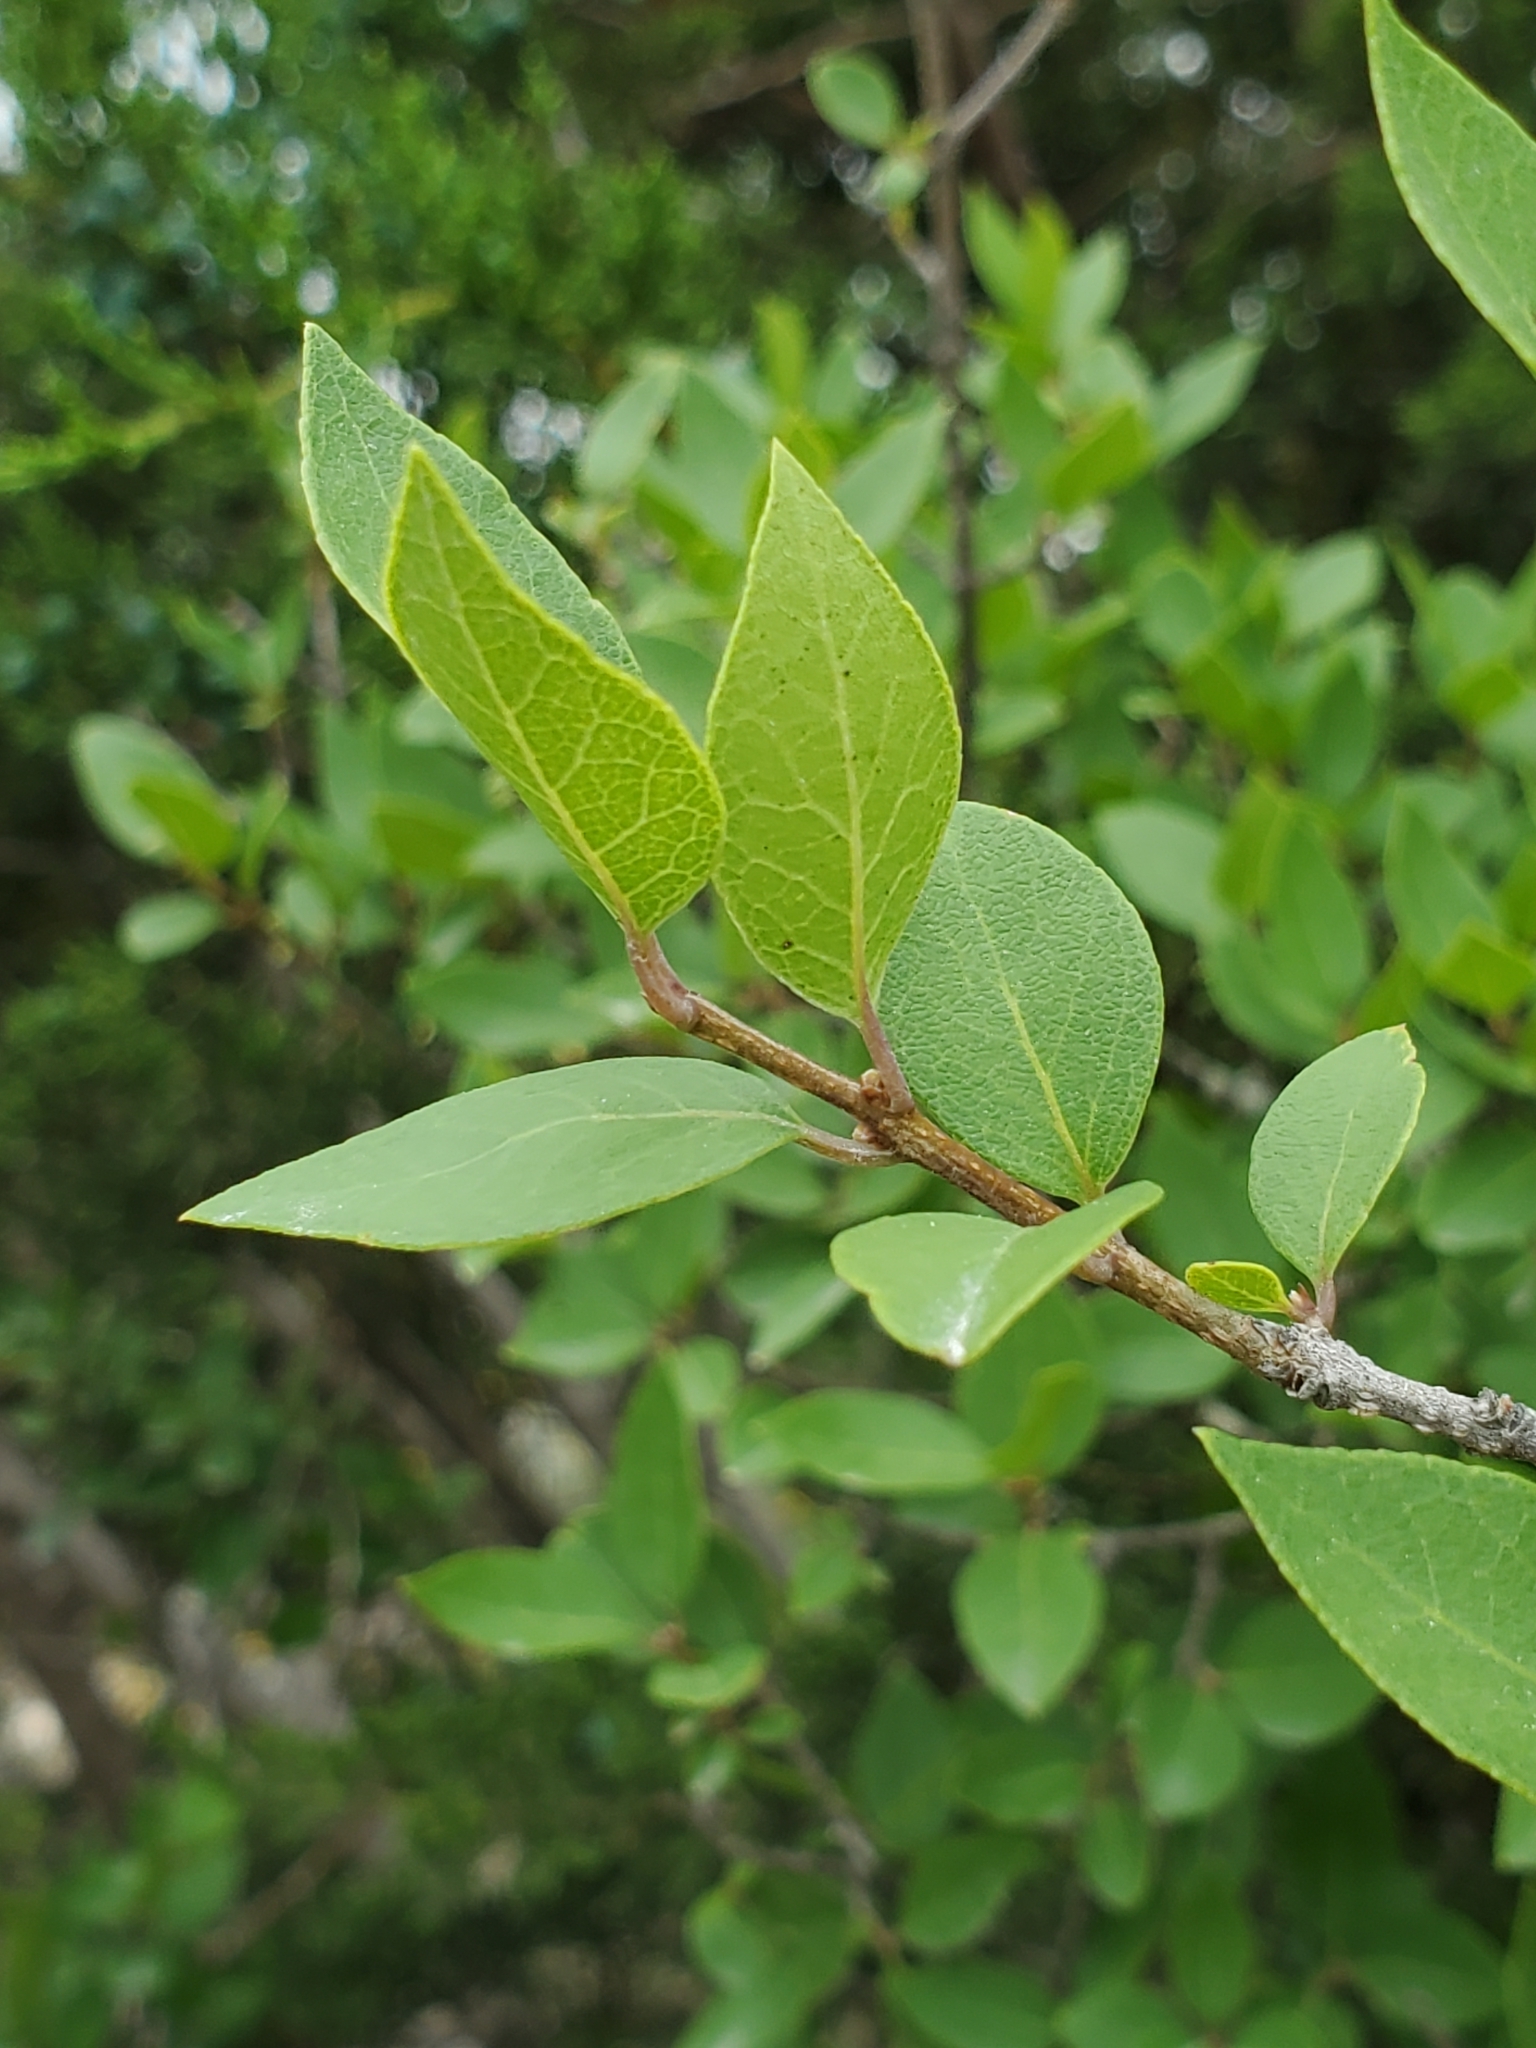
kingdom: Plantae
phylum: Tracheophyta
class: Magnoliopsida
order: Lamiales
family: Oleaceae
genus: Forestiera
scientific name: Forestiera reticulata
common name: Netleaf swamp-privet
